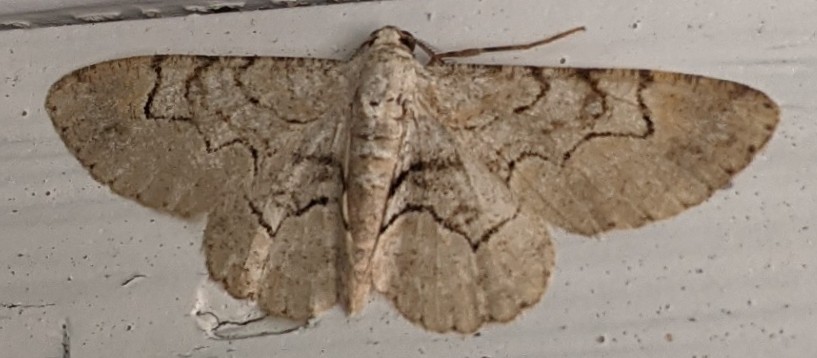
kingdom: Animalia
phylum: Arthropoda
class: Insecta
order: Lepidoptera
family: Geometridae
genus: Iridopsis
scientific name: Iridopsis larvaria
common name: Bent-line gray
